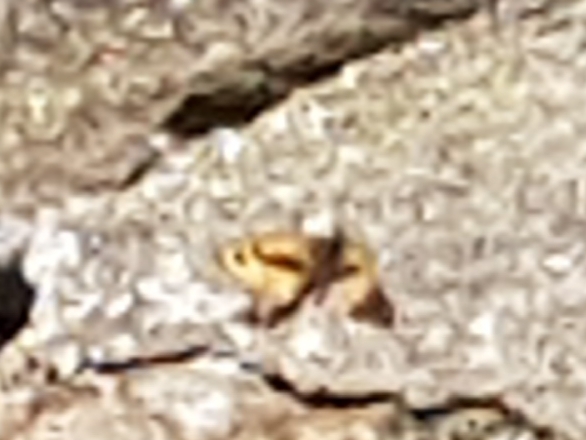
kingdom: Animalia
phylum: Arthropoda
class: Insecta
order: Lepidoptera
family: Nymphalidae
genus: Pararge
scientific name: Pararge Lasiommata megera
